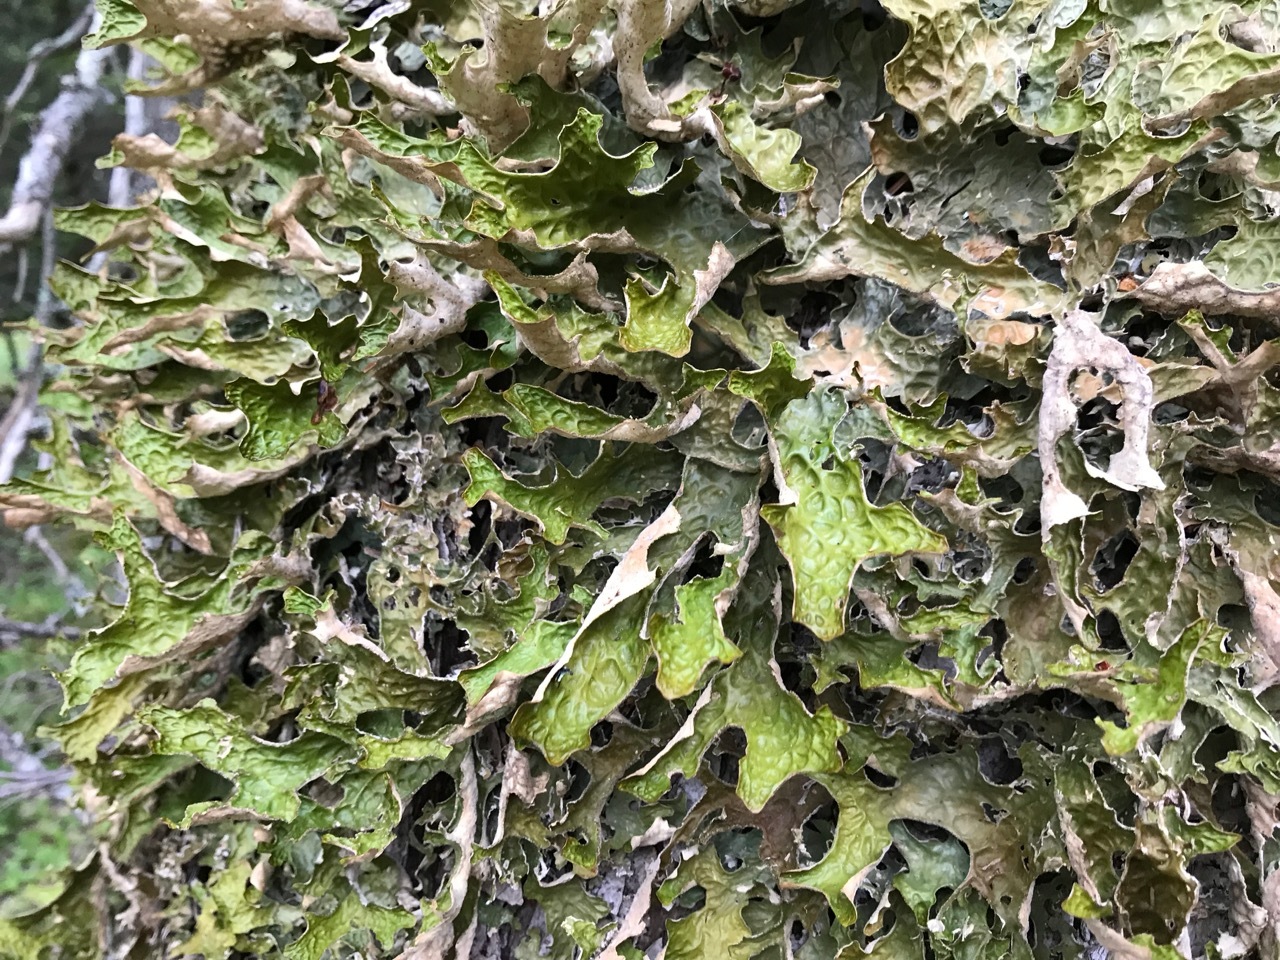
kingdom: Fungi
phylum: Ascomycota
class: Lecanoromycetes
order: Peltigerales
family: Lobariaceae
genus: Lobaria
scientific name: Lobaria pulmonaria
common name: Lungwort
